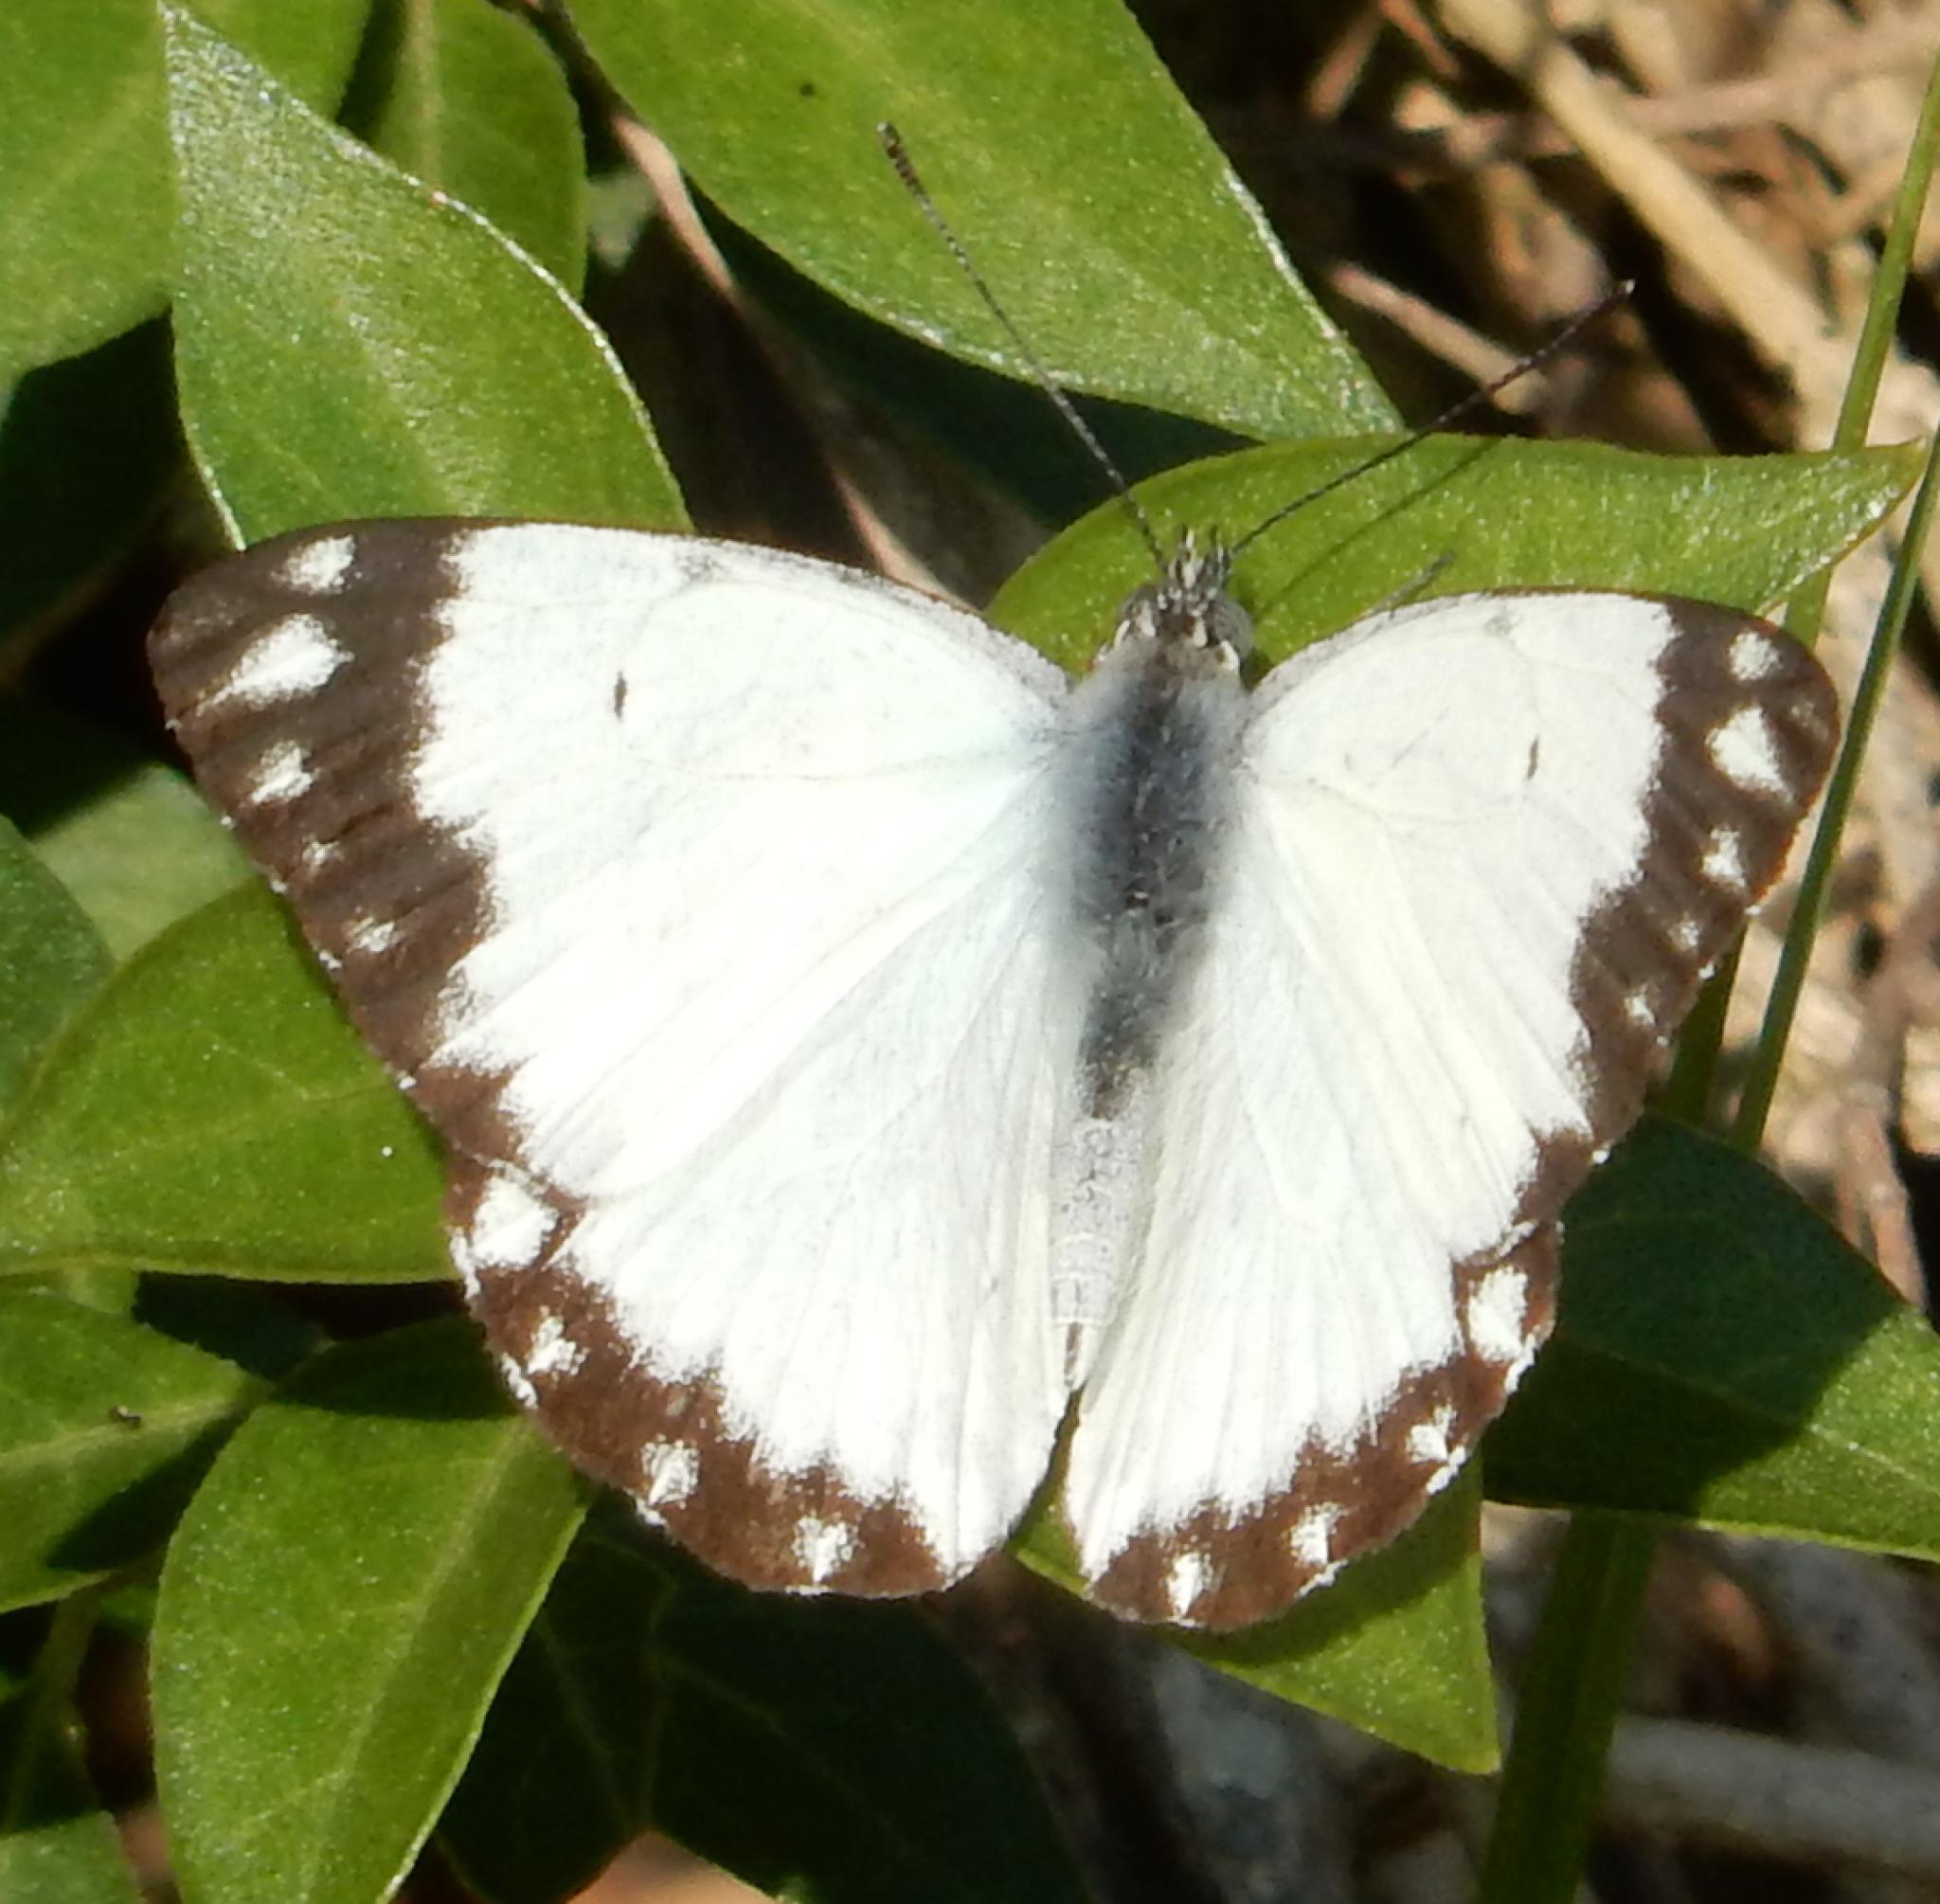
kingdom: Animalia
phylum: Arthropoda
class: Insecta
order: Lepidoptera
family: Pieridae
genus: Belenois
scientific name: Belenois creona
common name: African caper white
